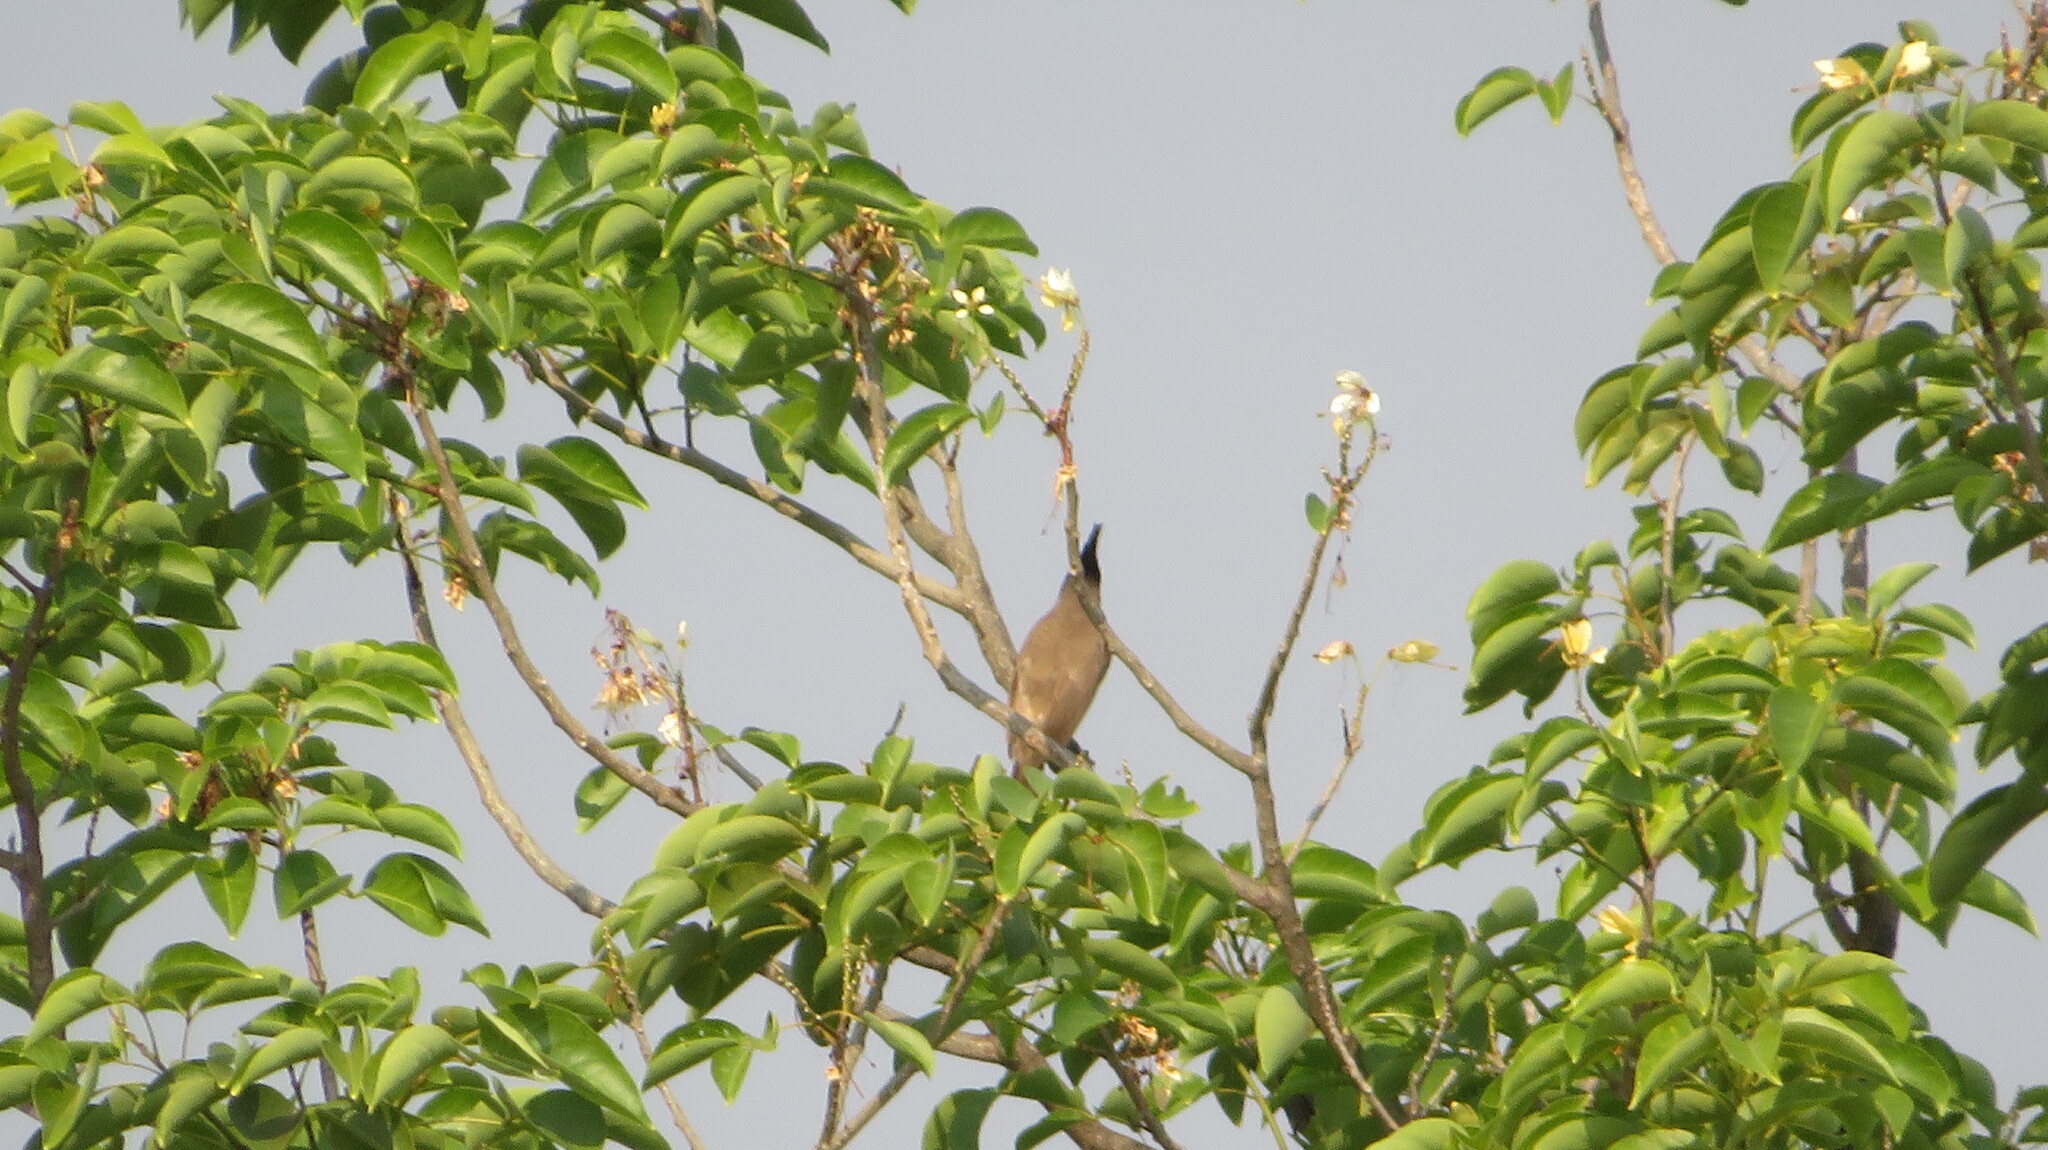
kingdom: Animalia
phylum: Chordata
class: Aves
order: Passeriformes
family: Pycnonotidae
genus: Pycnonotus
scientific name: Pycnonotus jocosus
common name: Red-whiskered bulbul
